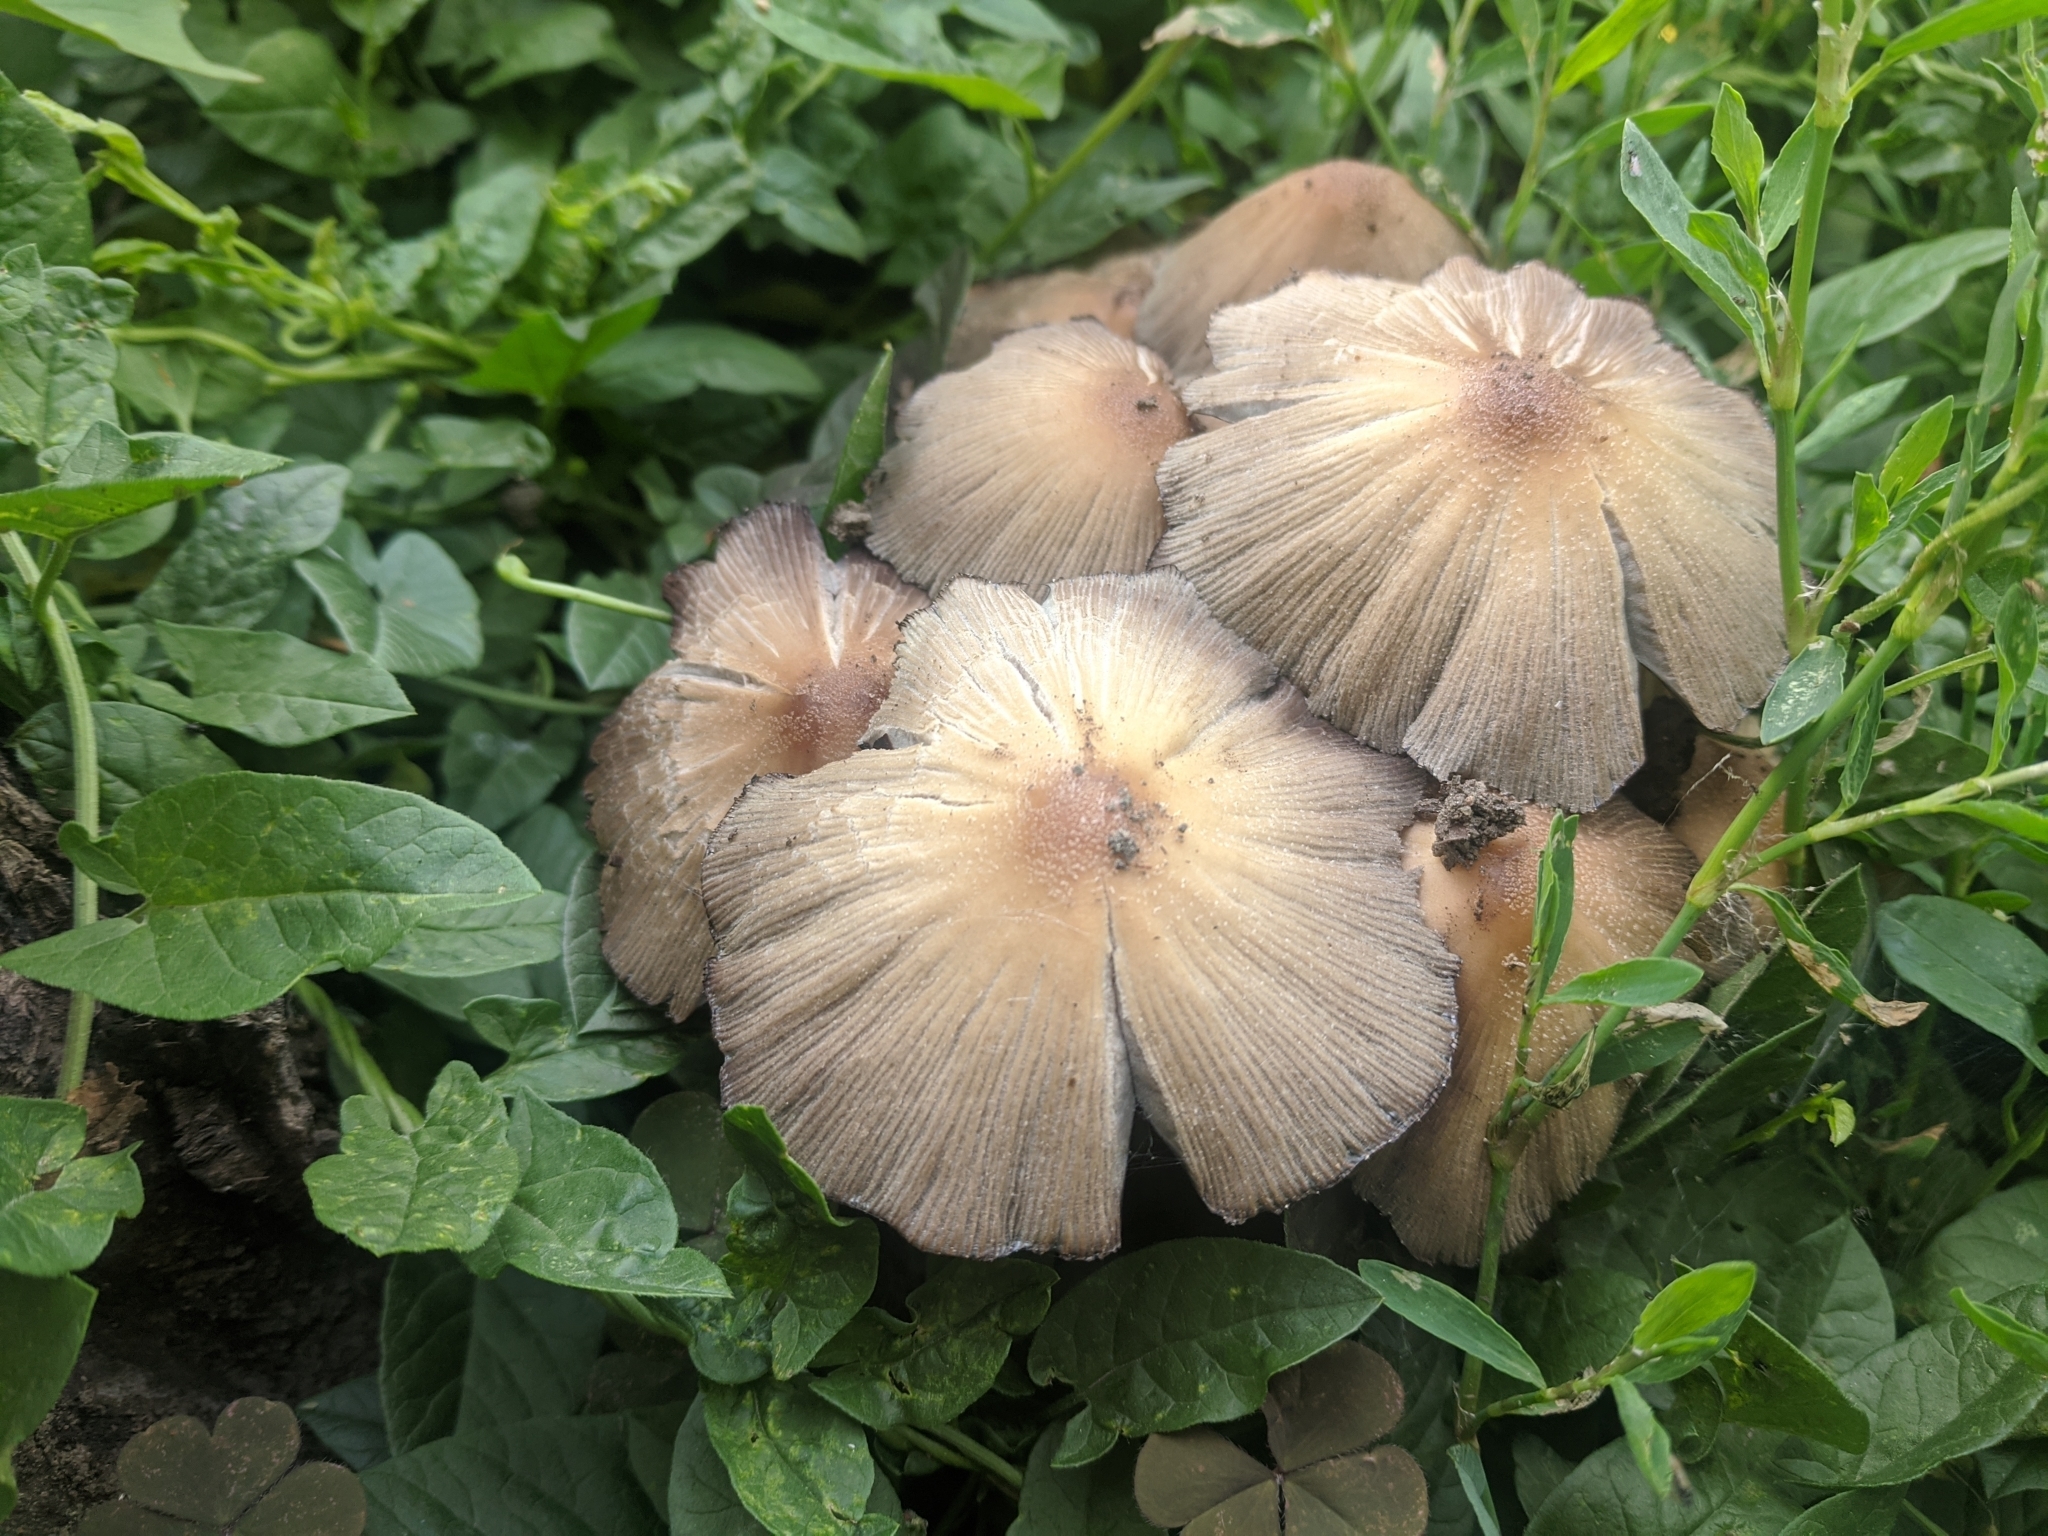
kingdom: Fungi
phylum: Basidiomycota
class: Agaricomycetes
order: Agaricales
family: Psathyrellaceae
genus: Coprinopsis
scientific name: Coprinopsis atramentaria
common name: Common ink-cap
